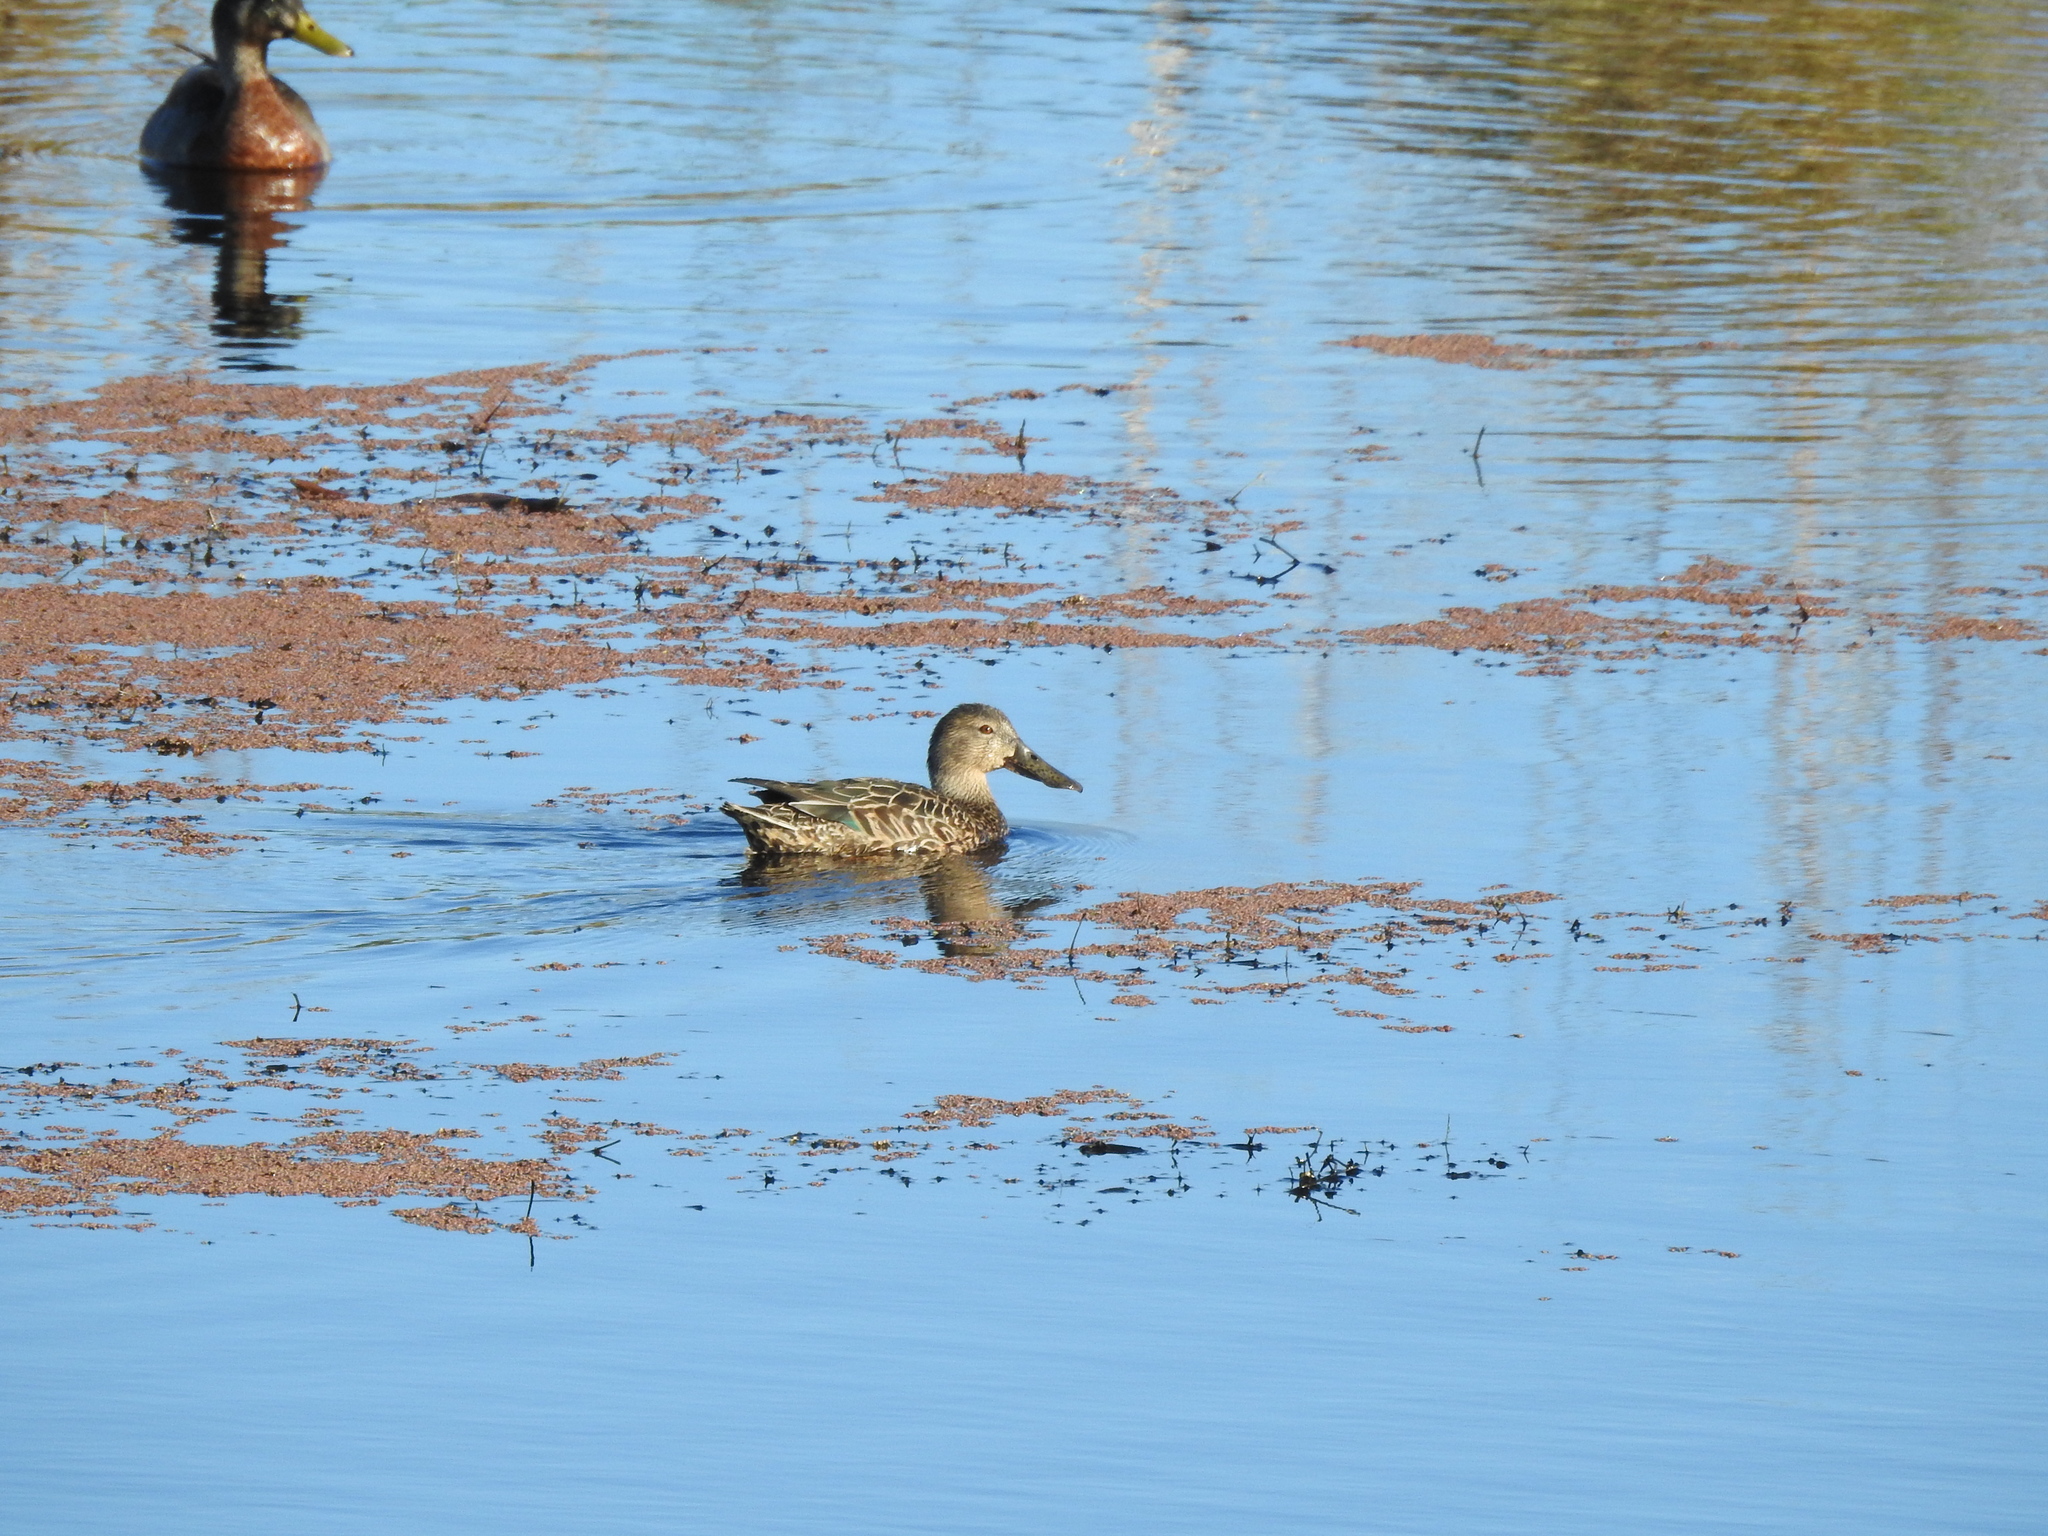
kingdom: Animalia
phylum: Chordata
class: Aves
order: Anseriformes
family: Anatidae
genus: Spatula
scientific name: Spatula rhynchotis
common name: Australian shoveler
